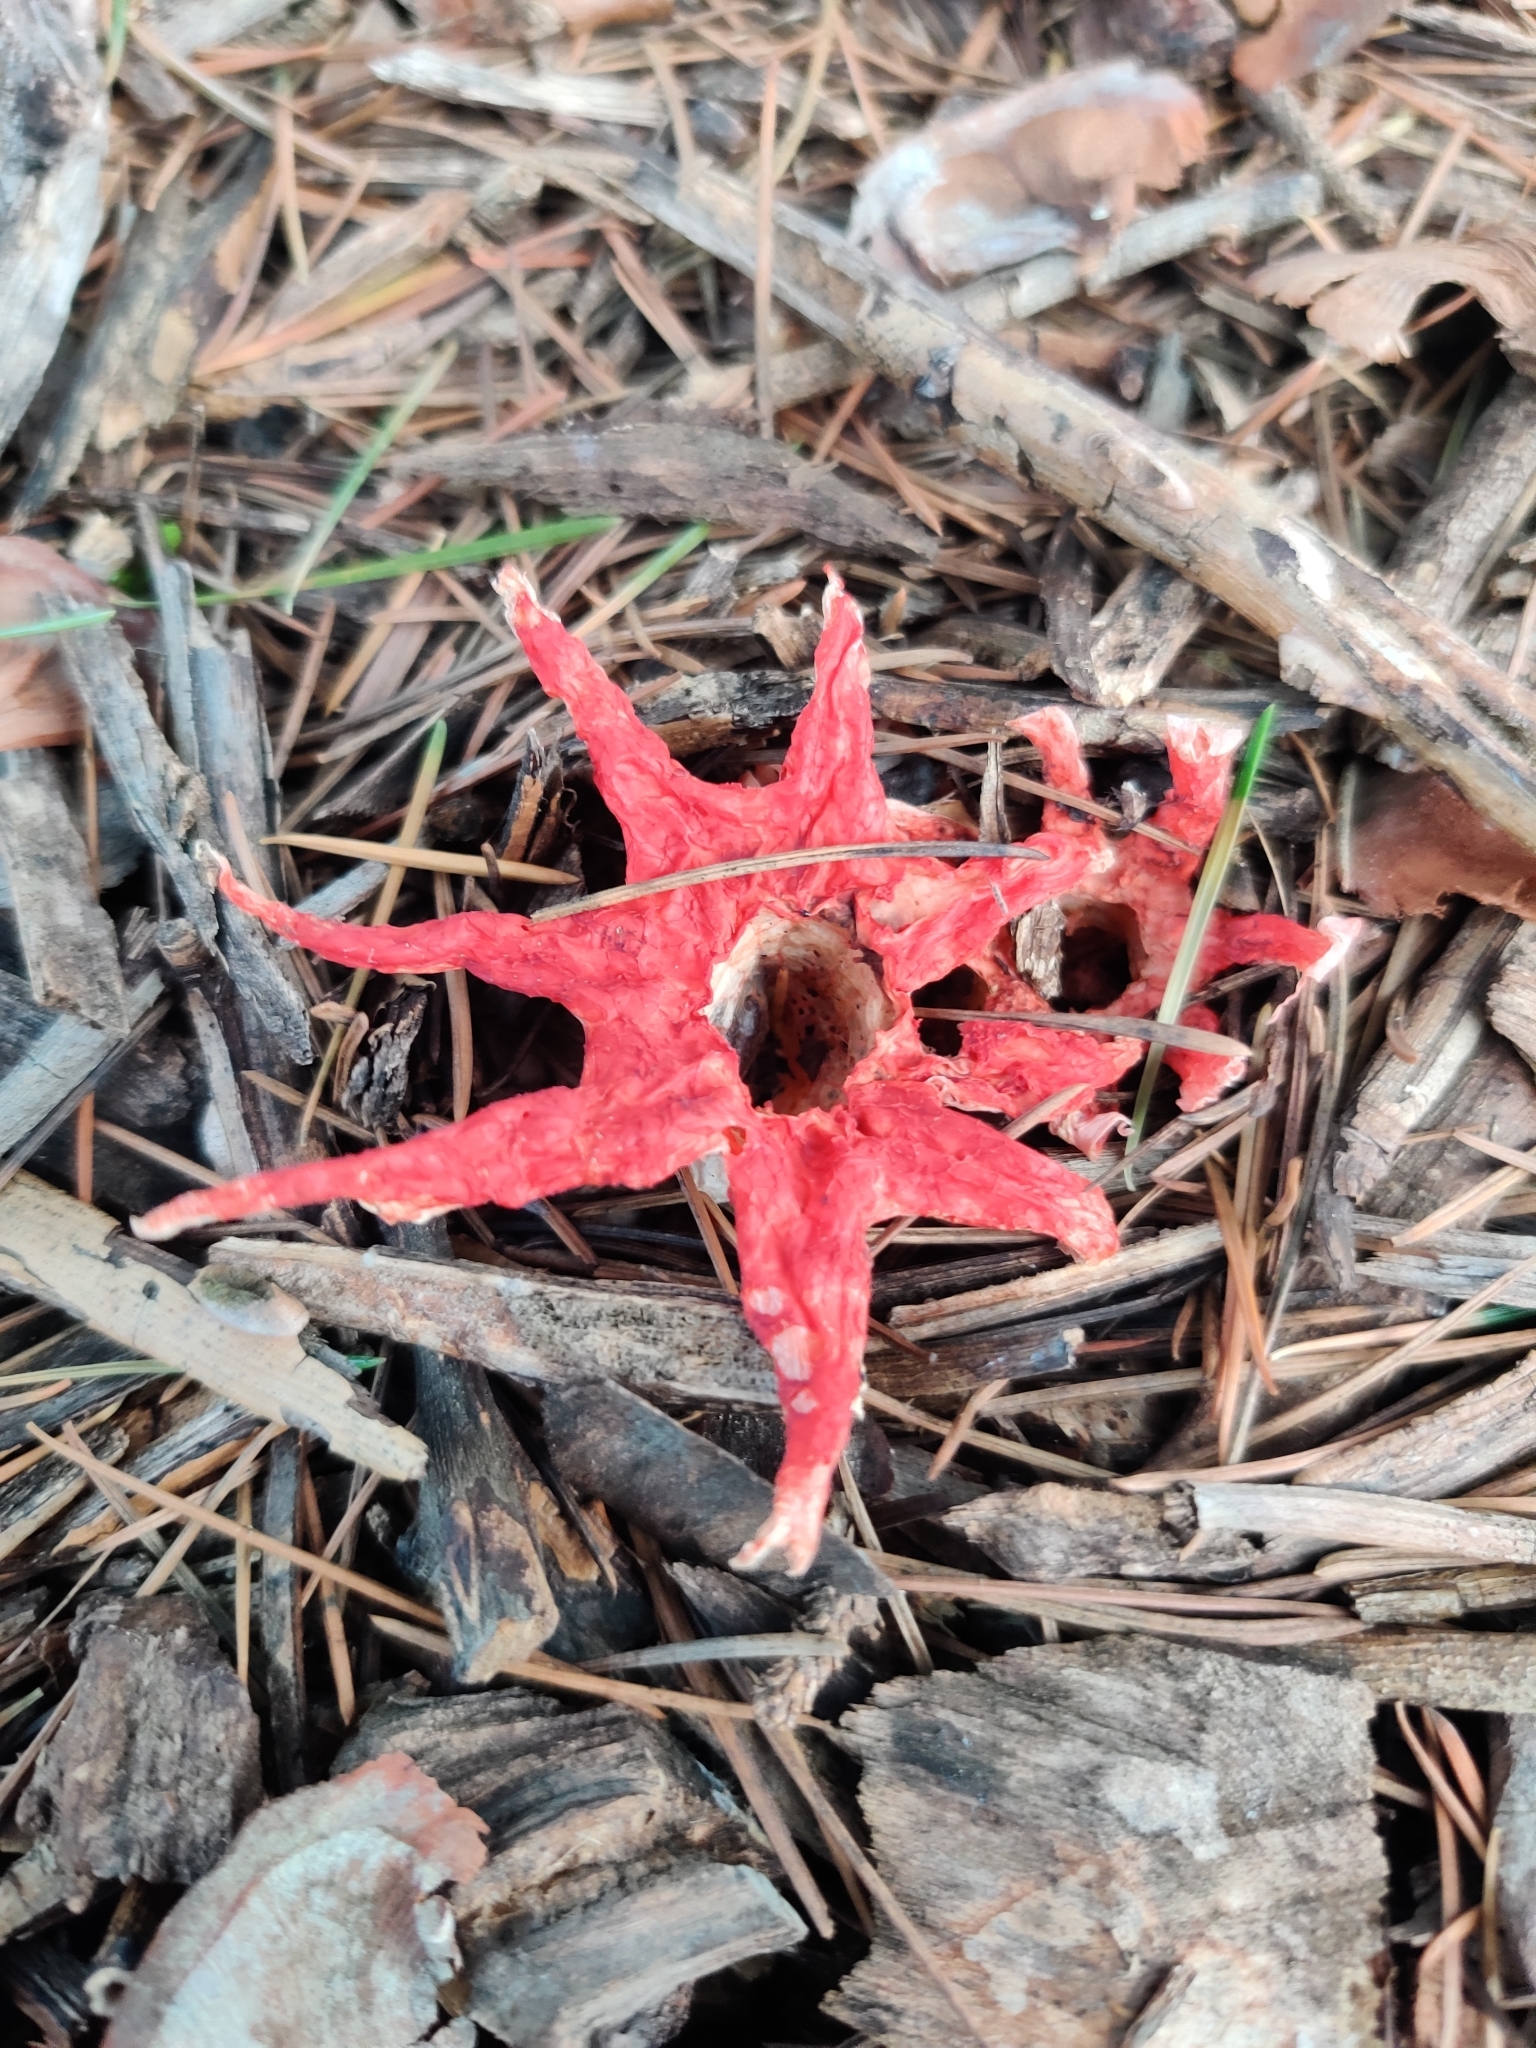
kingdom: Fungi
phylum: Basidiomycota
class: Agaricomycetes
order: Phallales
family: Phallaceae
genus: Aseroe
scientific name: Aseroe rubra
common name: Starfish fungus
